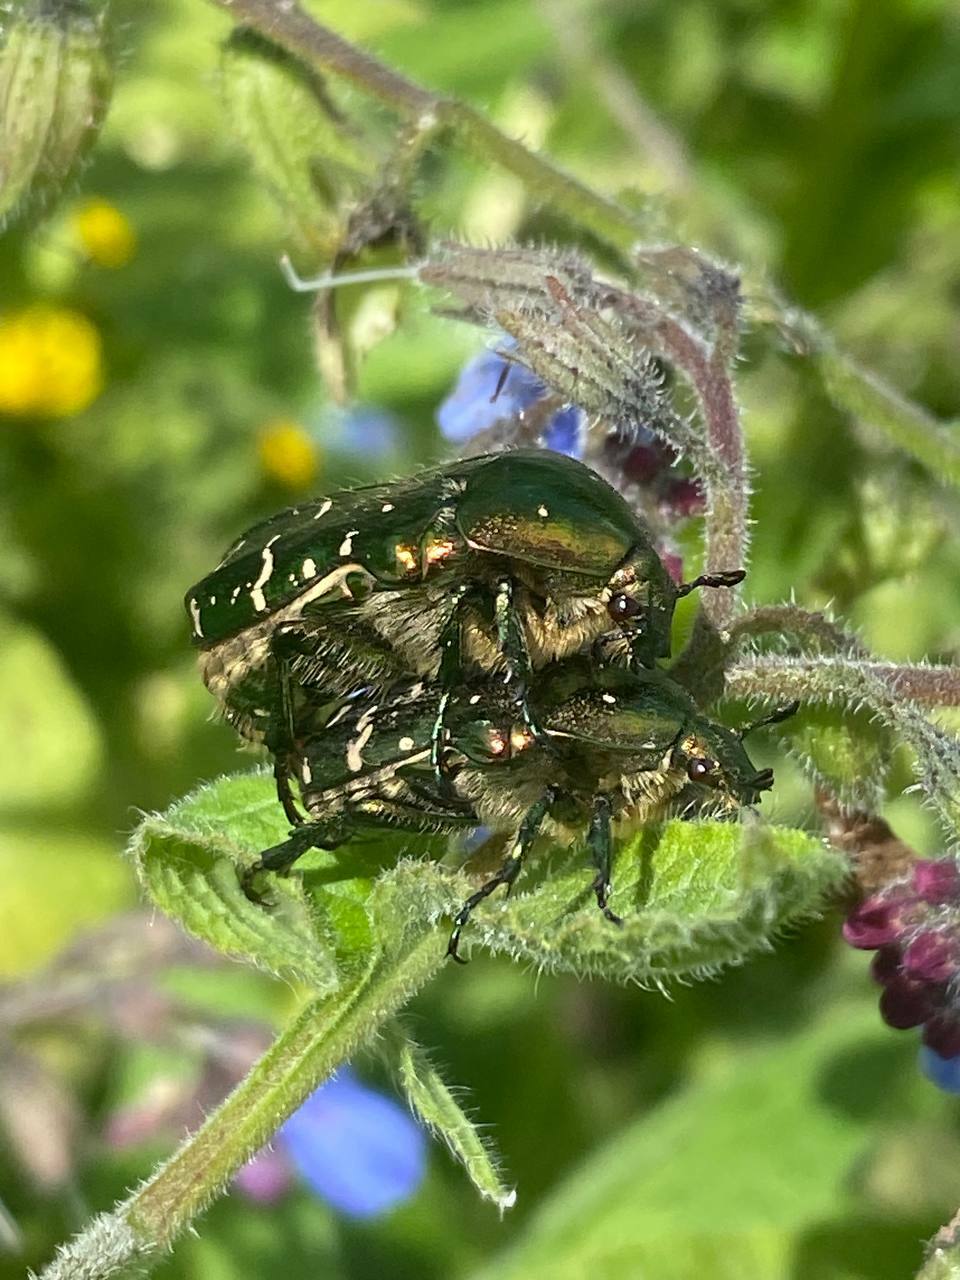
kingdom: Animalia
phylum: Arthropoda
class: Insecta
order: Coleoptera
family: Scarabaeidae
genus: Cetonia
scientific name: Cetonia aurata
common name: Rose chafer
